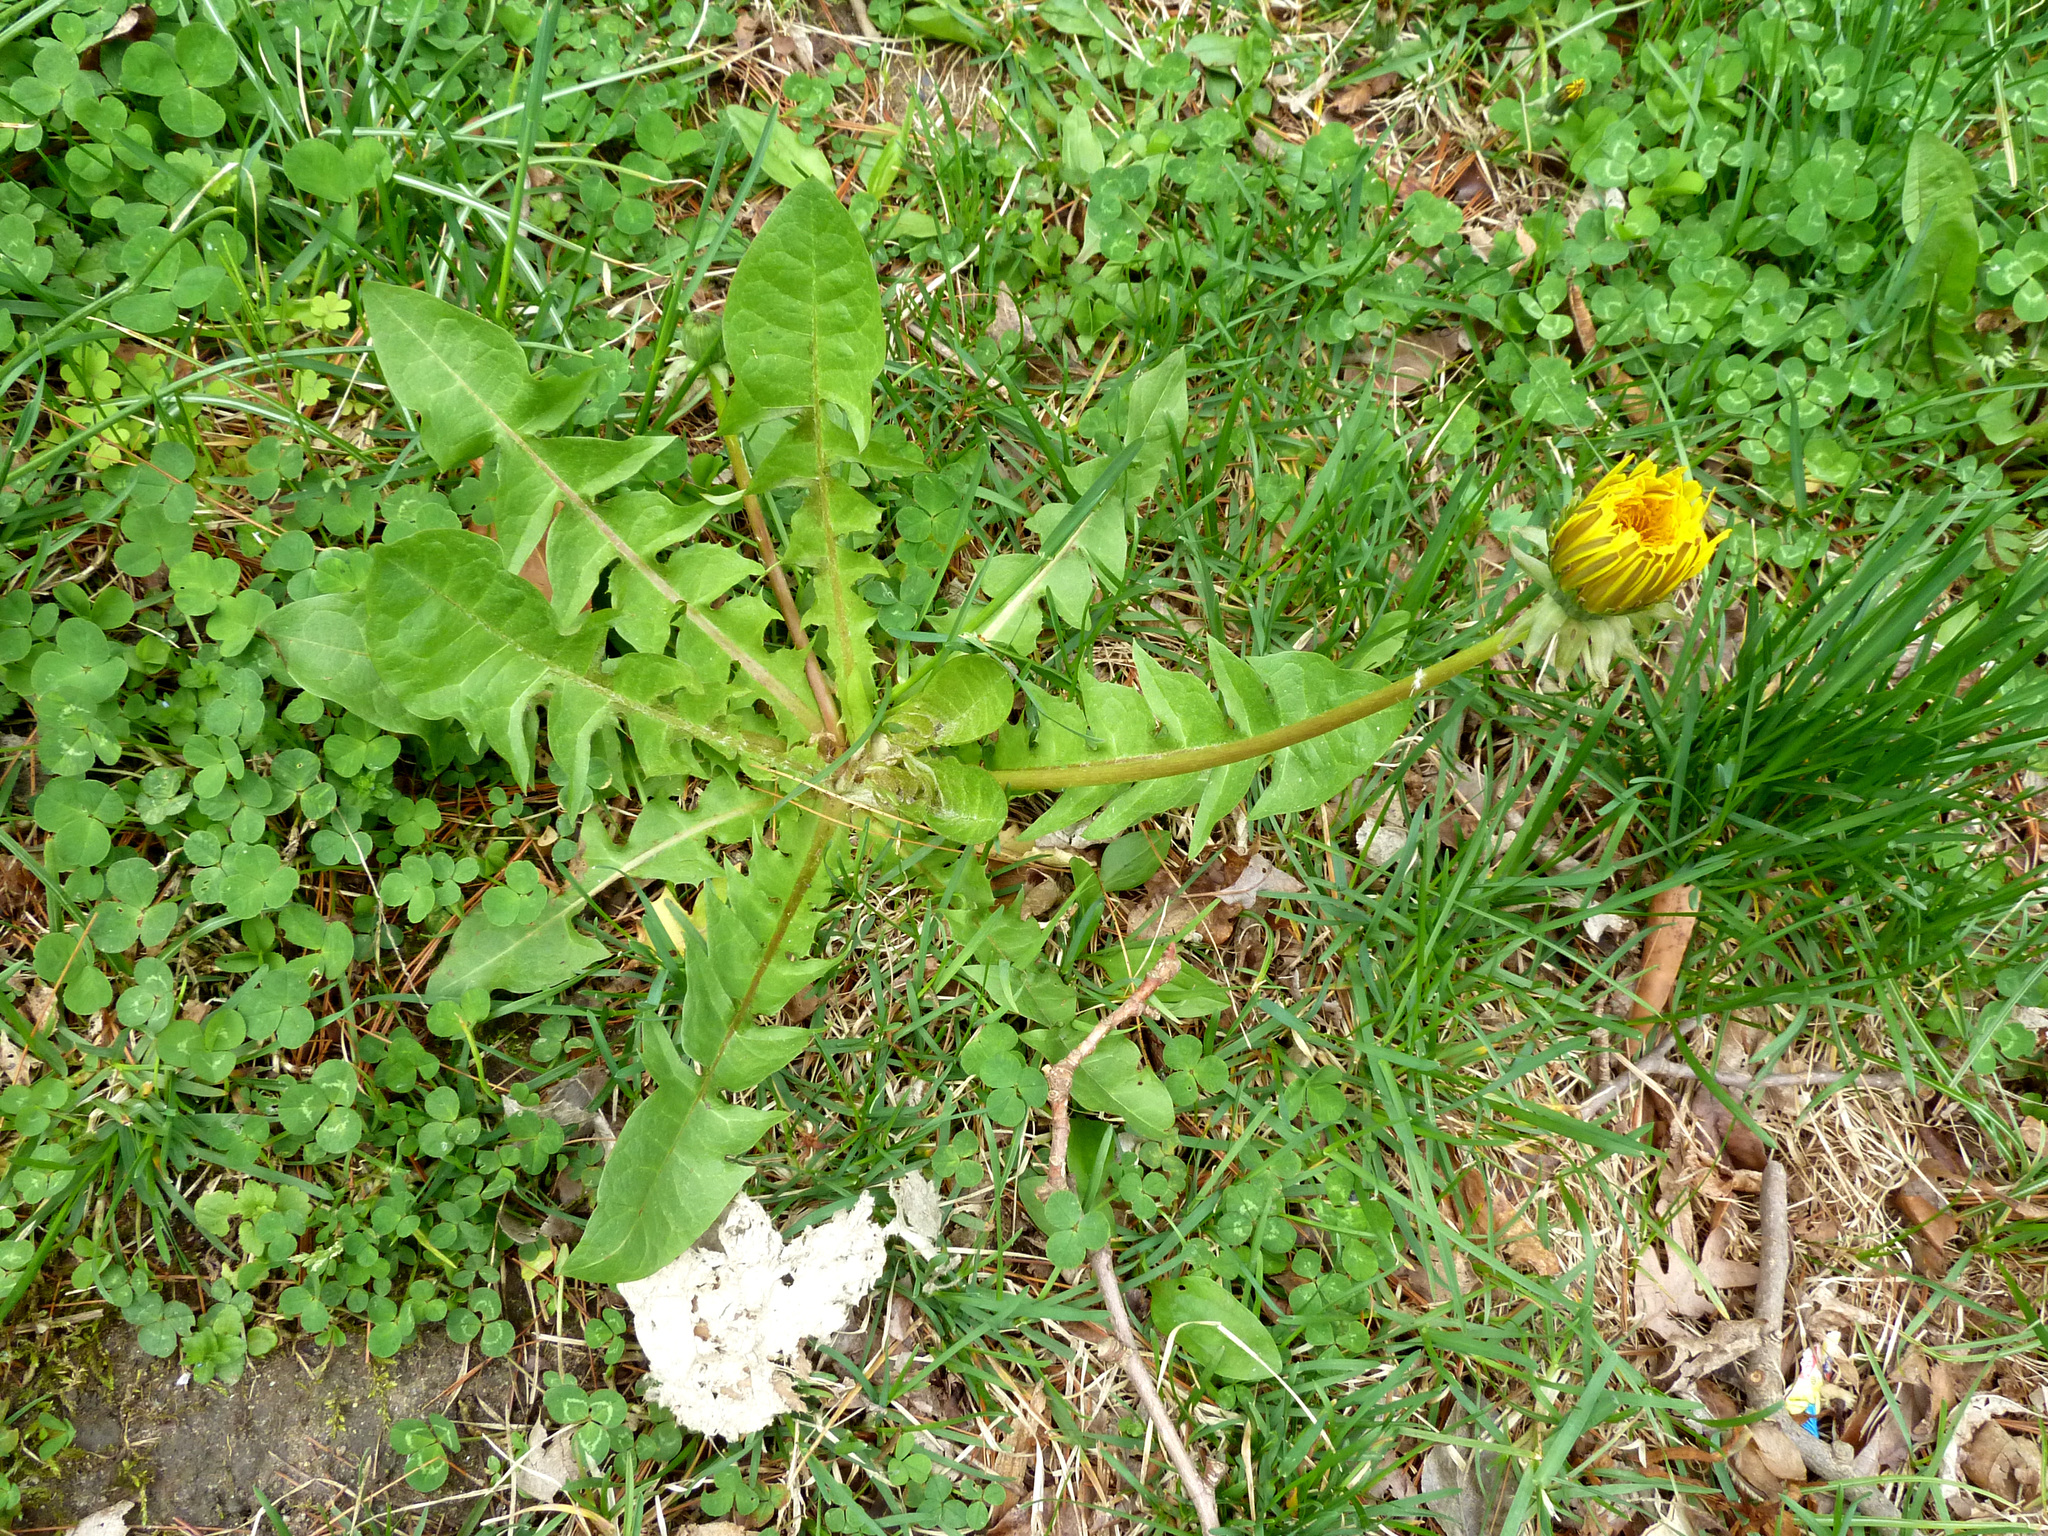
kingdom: Plantae
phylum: Tracheophyta
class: Magnoliopsida
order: Asterales
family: Asteraceae
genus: Taraxacum
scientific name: Taraxacum
